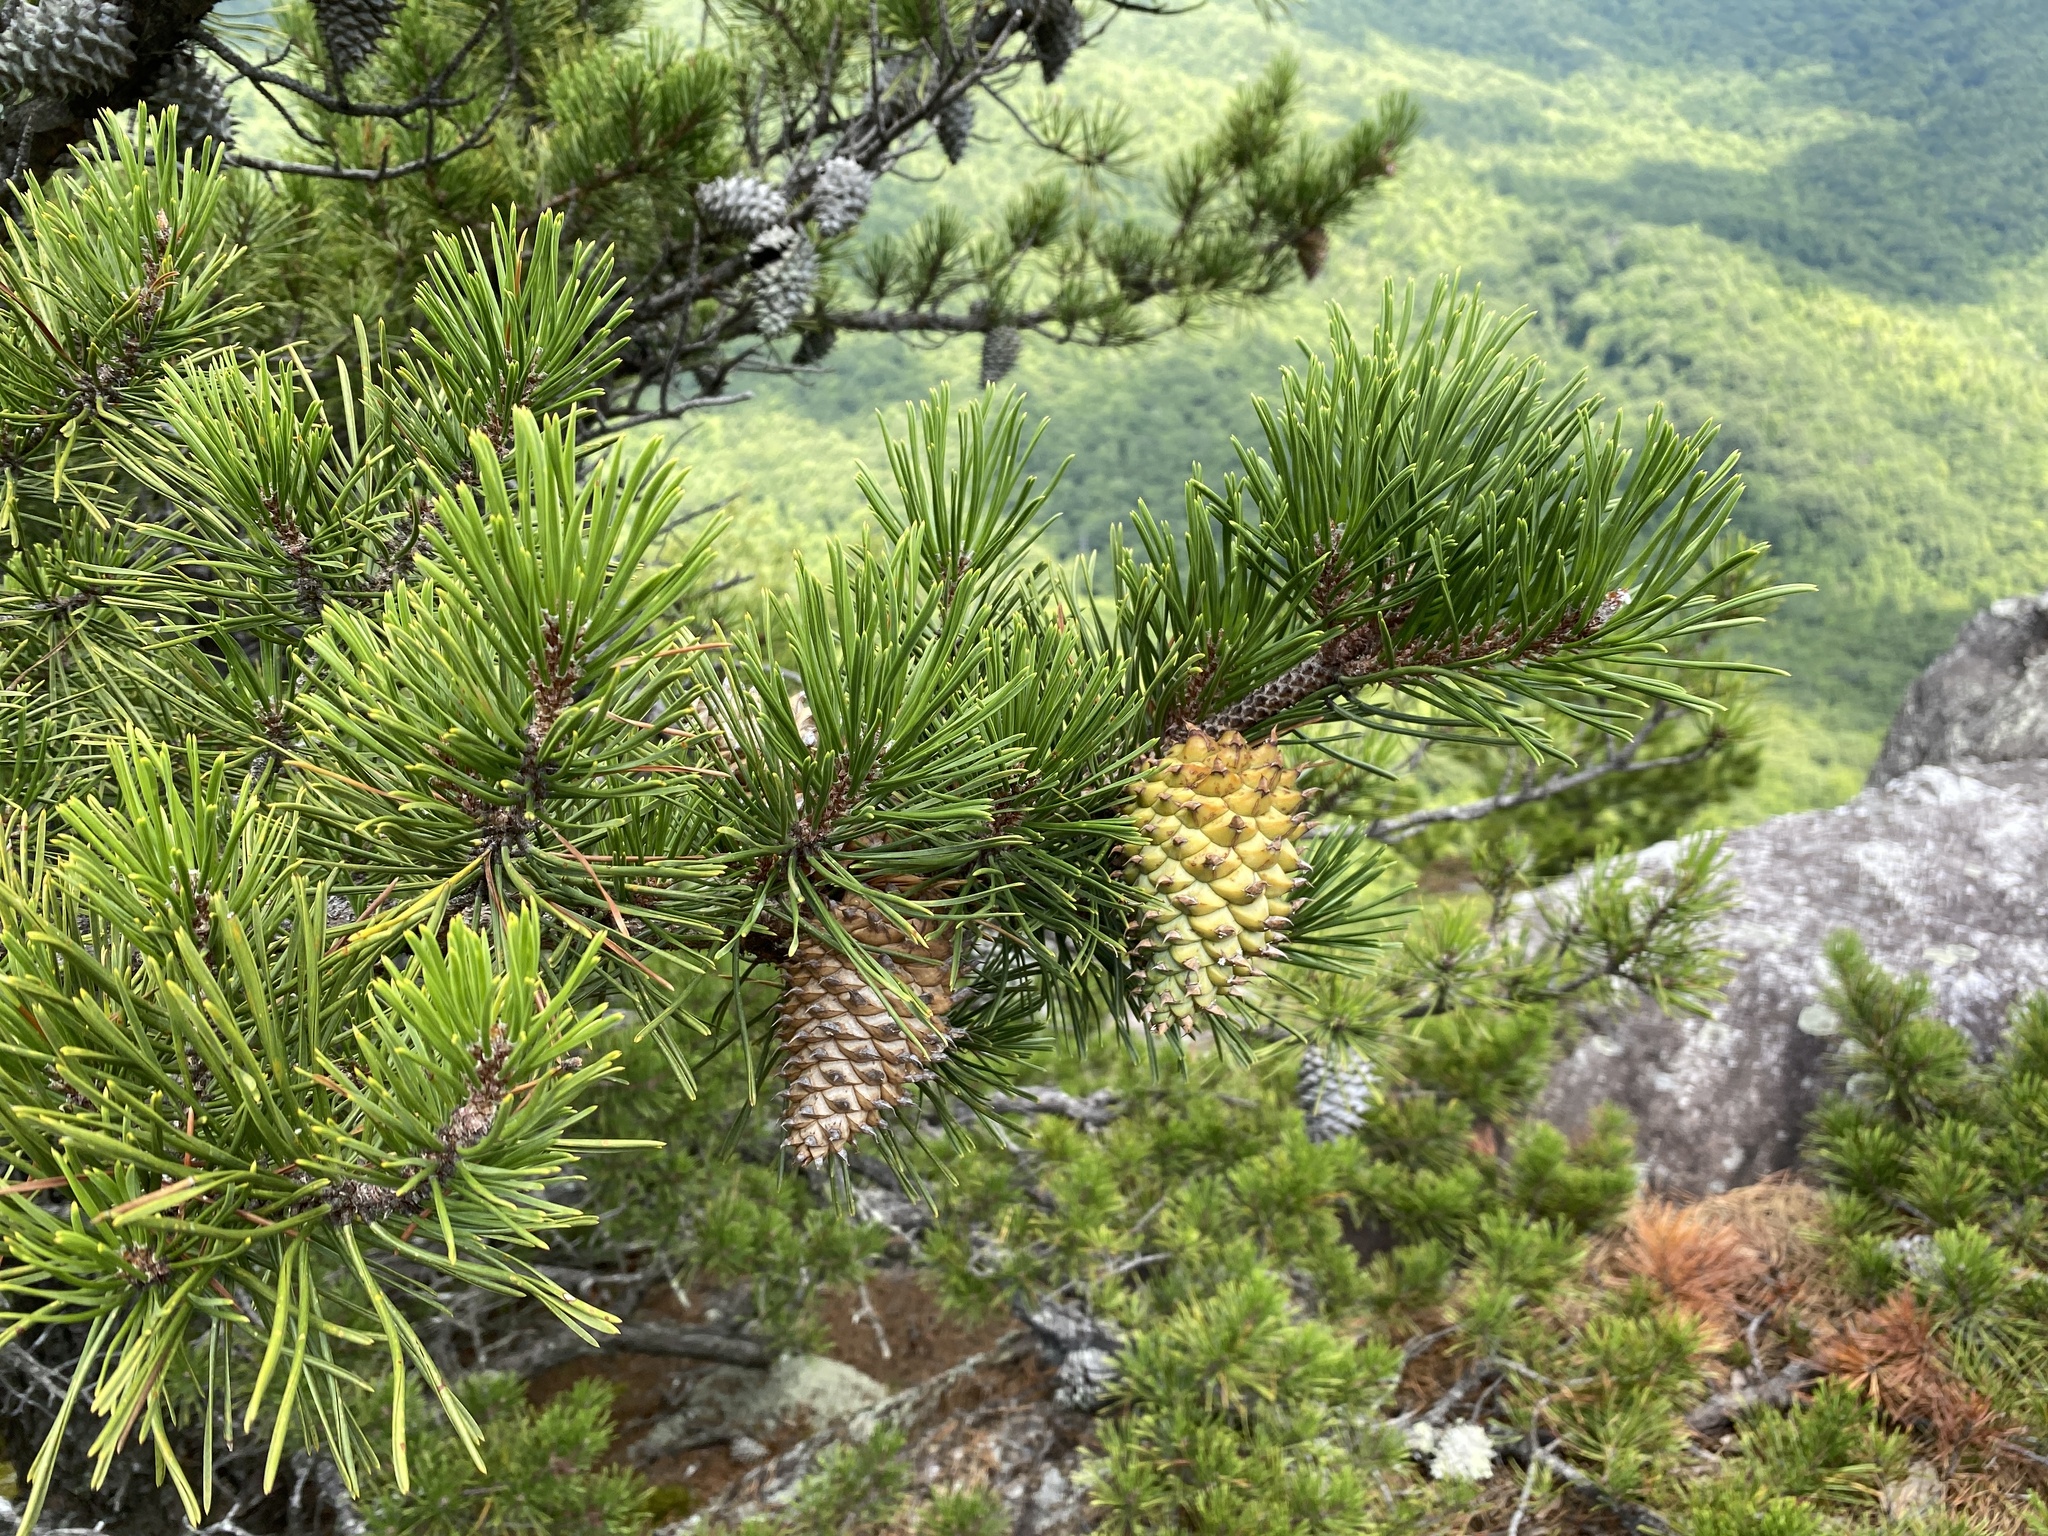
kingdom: Plantae
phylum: Tracheophyta
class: Pinopsida
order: Pinales
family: Pinaceae
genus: Pinus
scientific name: Pinus pungens
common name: Hickory pine
